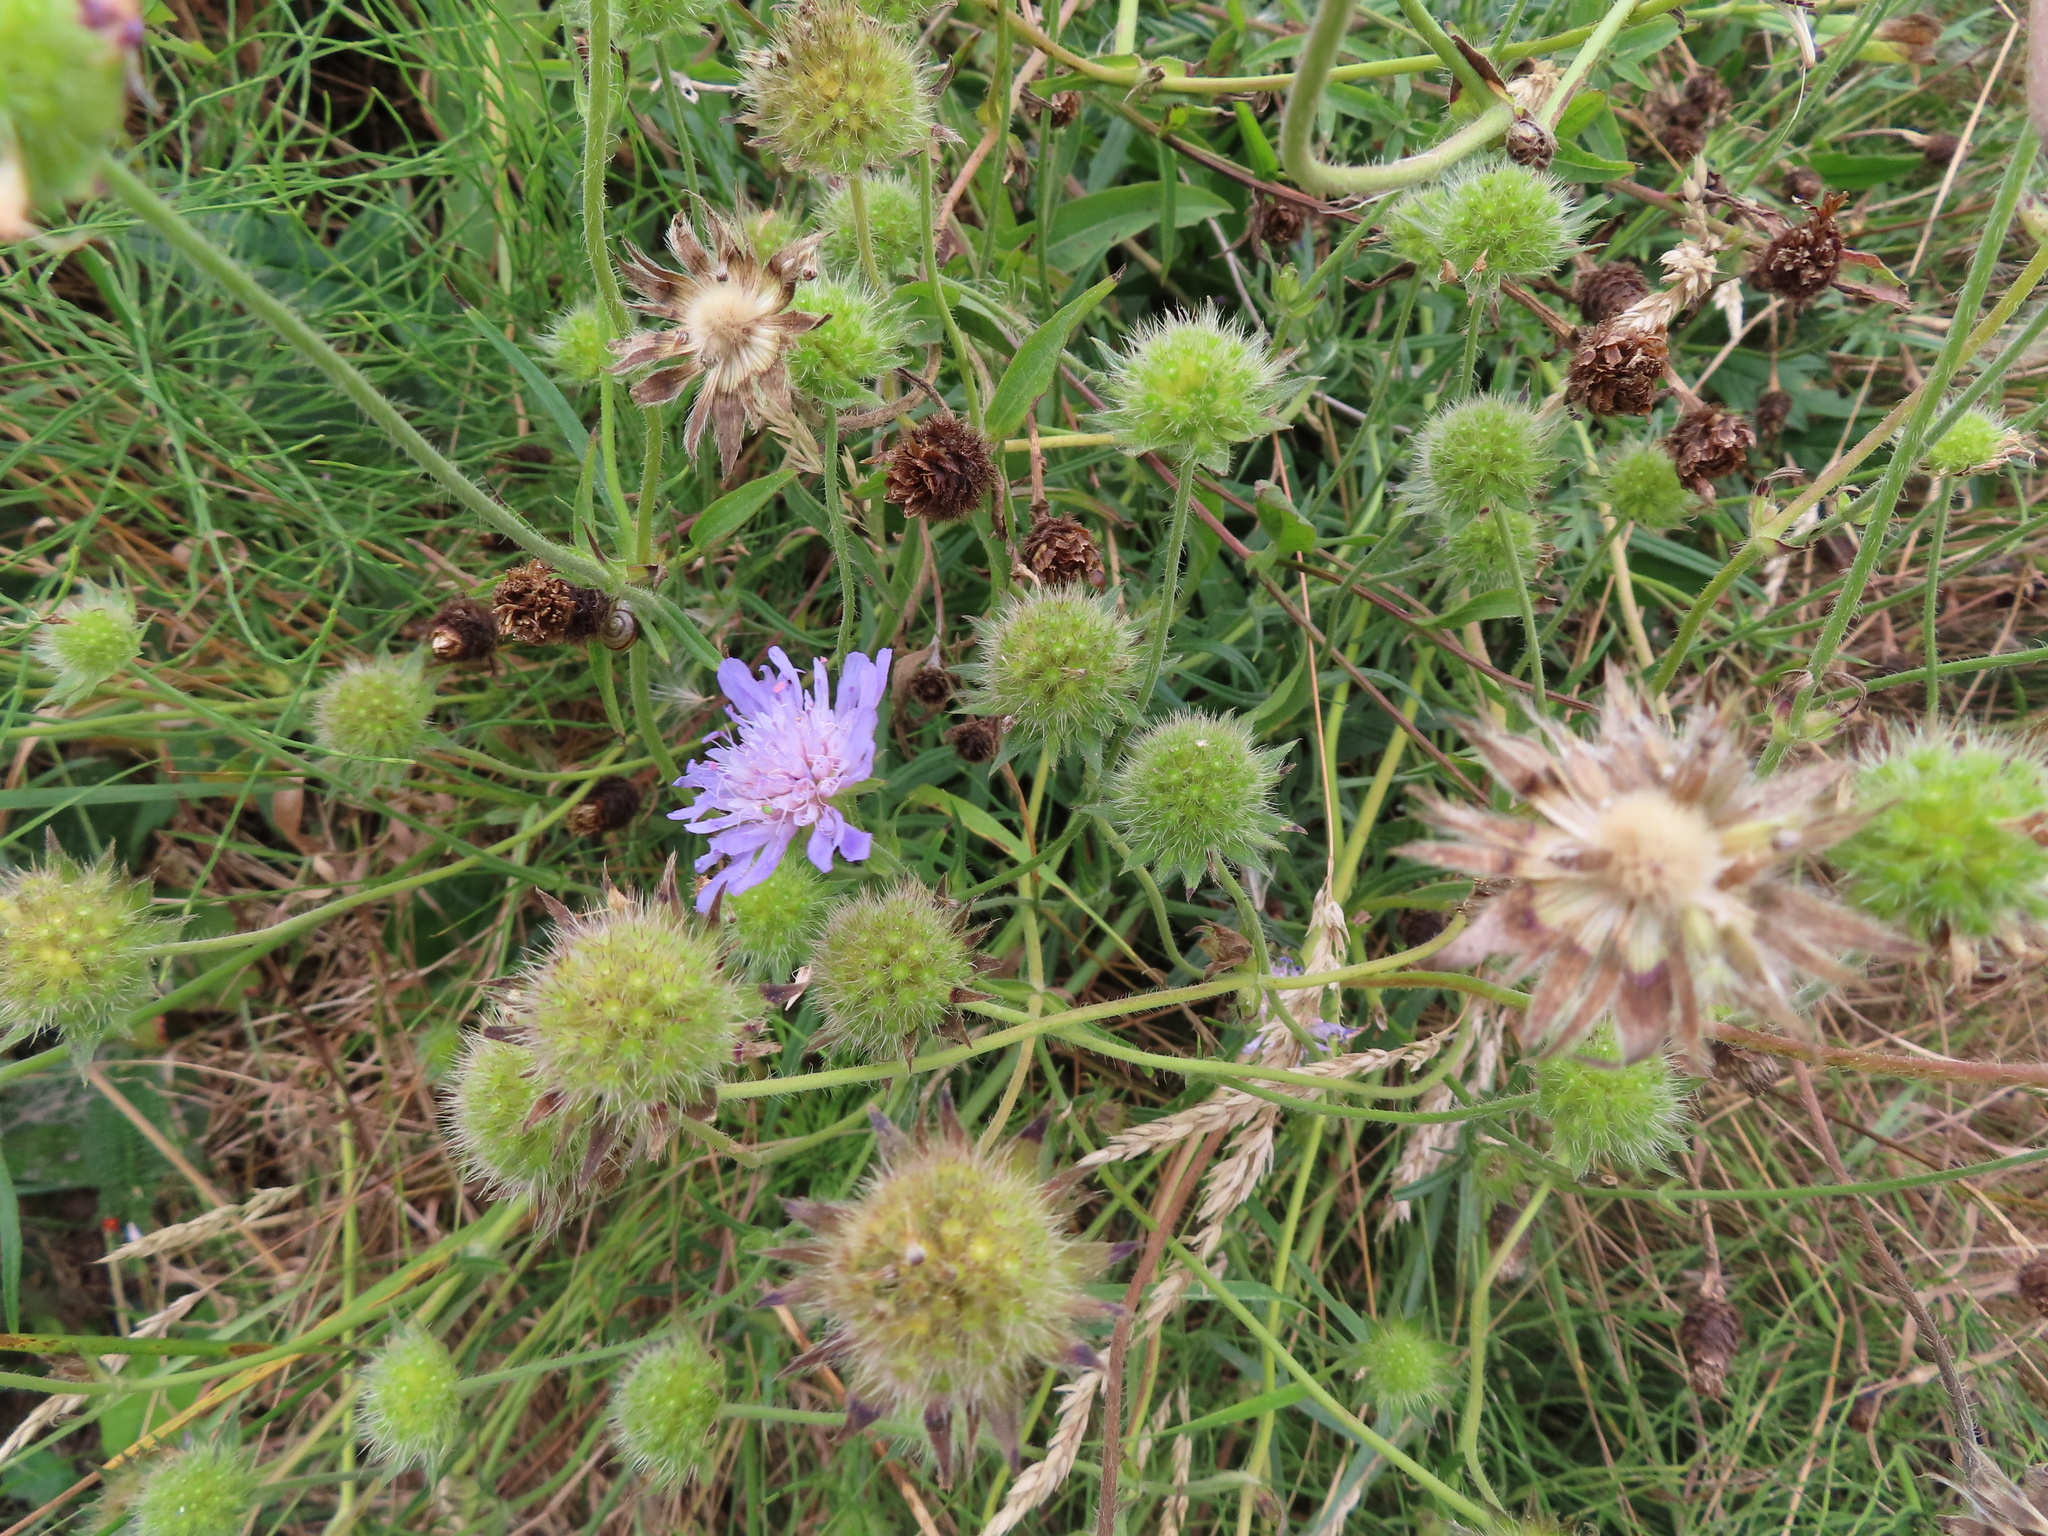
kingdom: Plantae
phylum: Tracheophyta
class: Magnoliopsida
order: Dipsacales
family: Caprifoliaceae
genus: Knautia
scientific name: Knautia arvensis
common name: Field scabiosa
